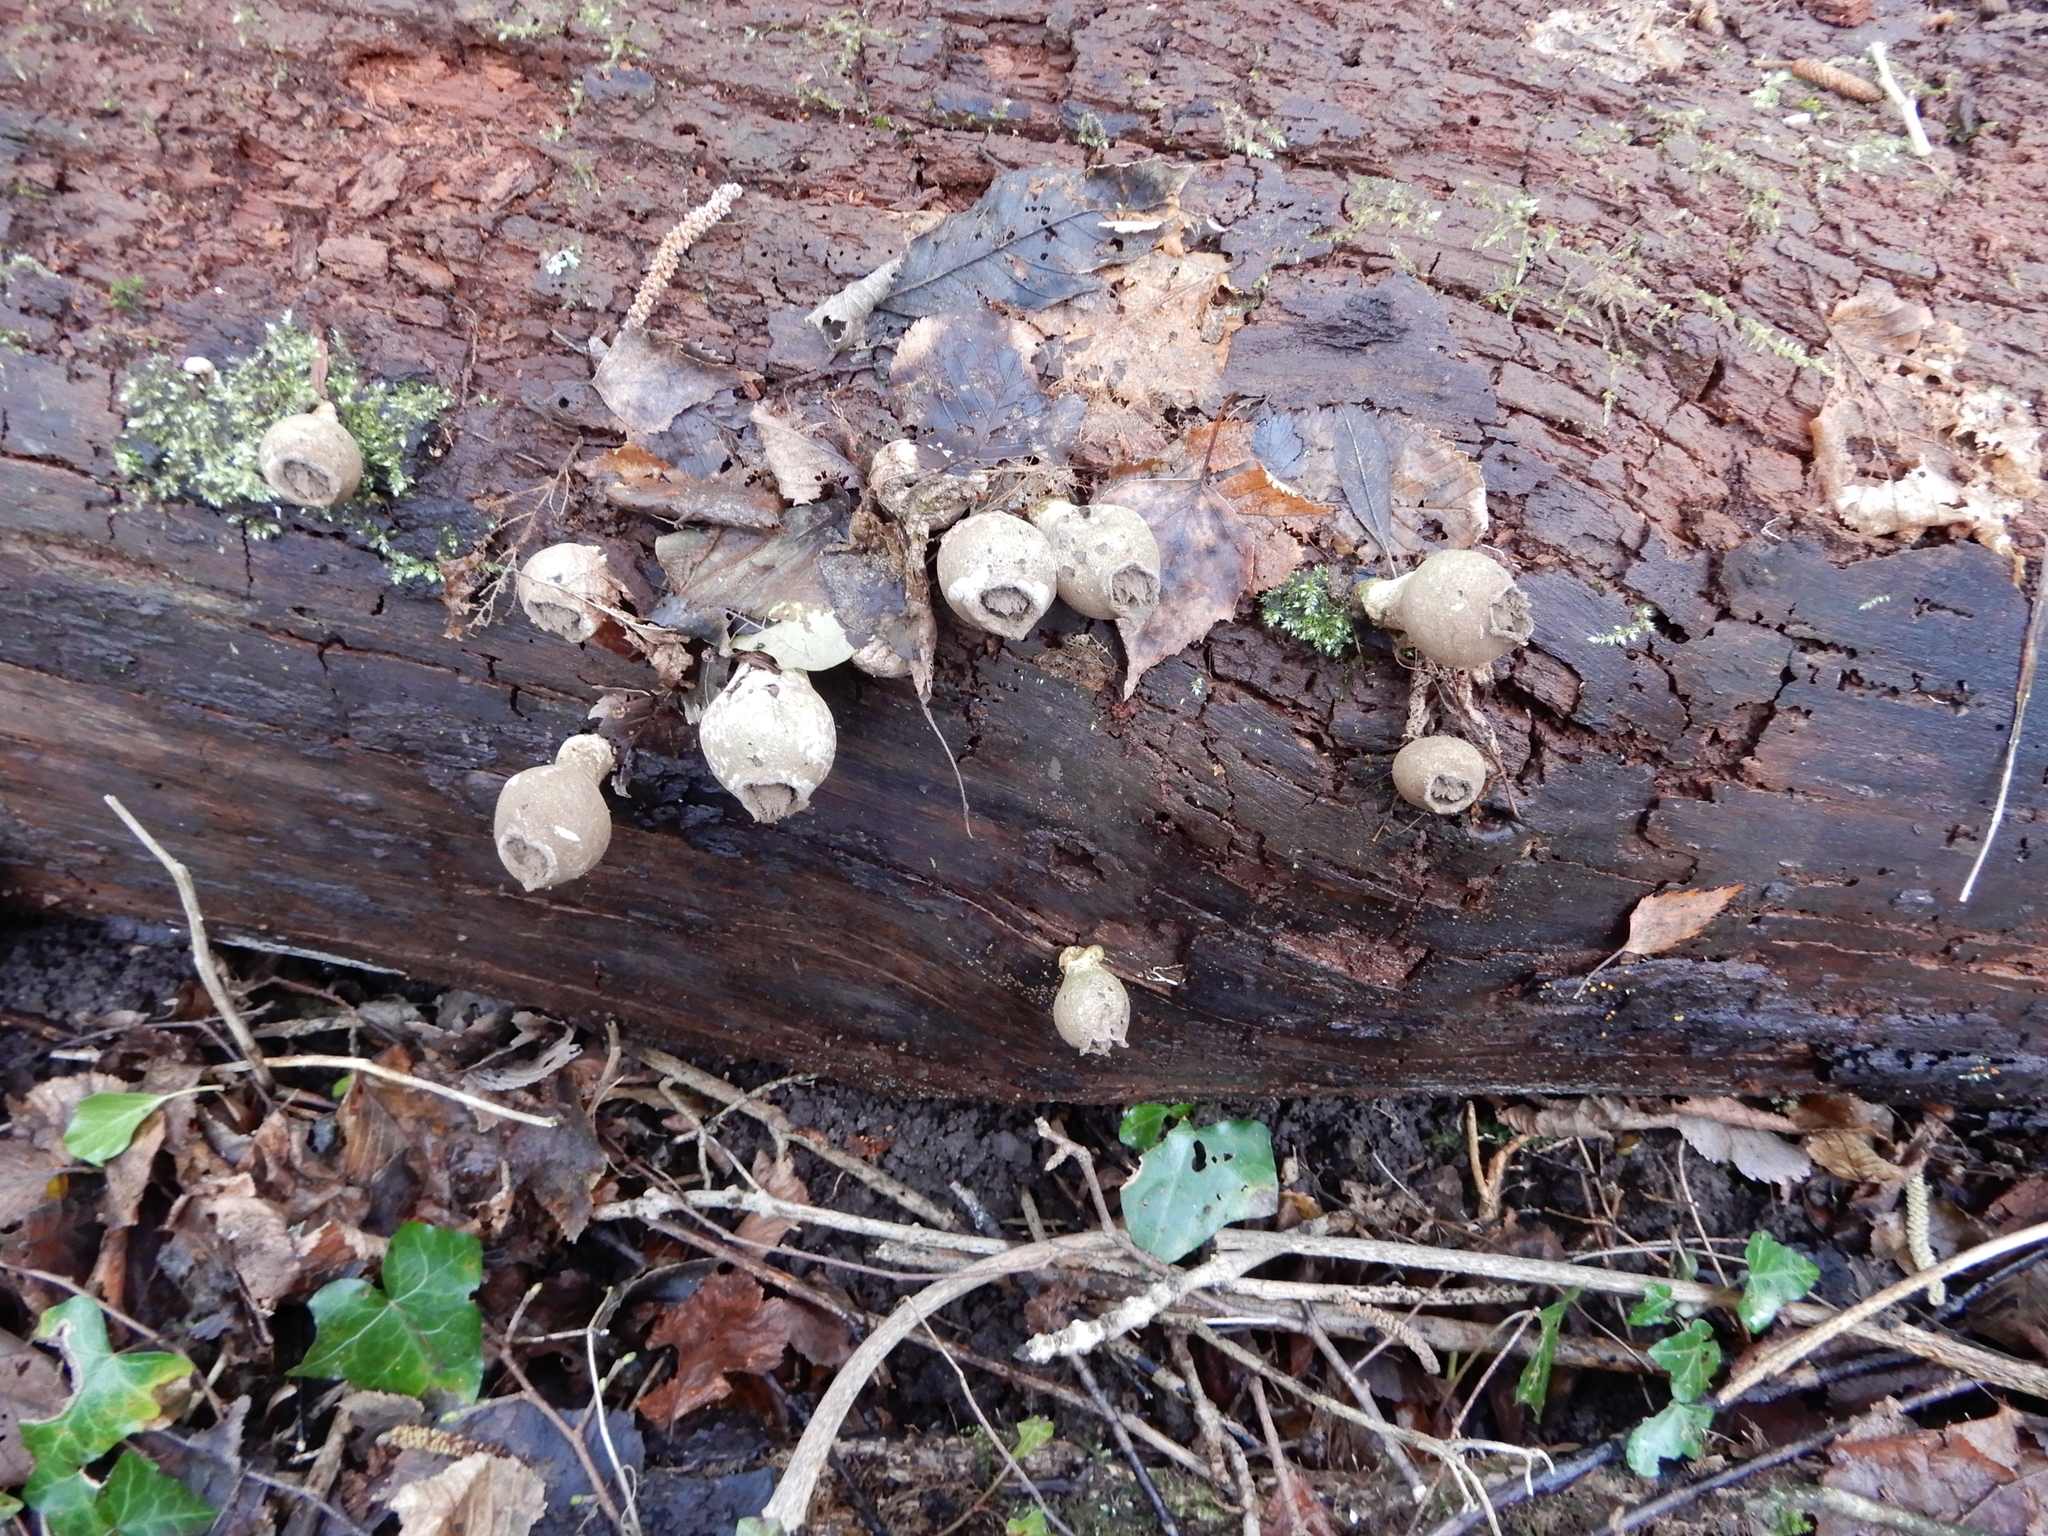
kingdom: Fungi
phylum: Basidiomycota
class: Agaricomycetes
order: Agaricales
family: Lycoperdaceae
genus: Apioperdon
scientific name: Apioperdon pyriforme
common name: Pear-shaped puffball
